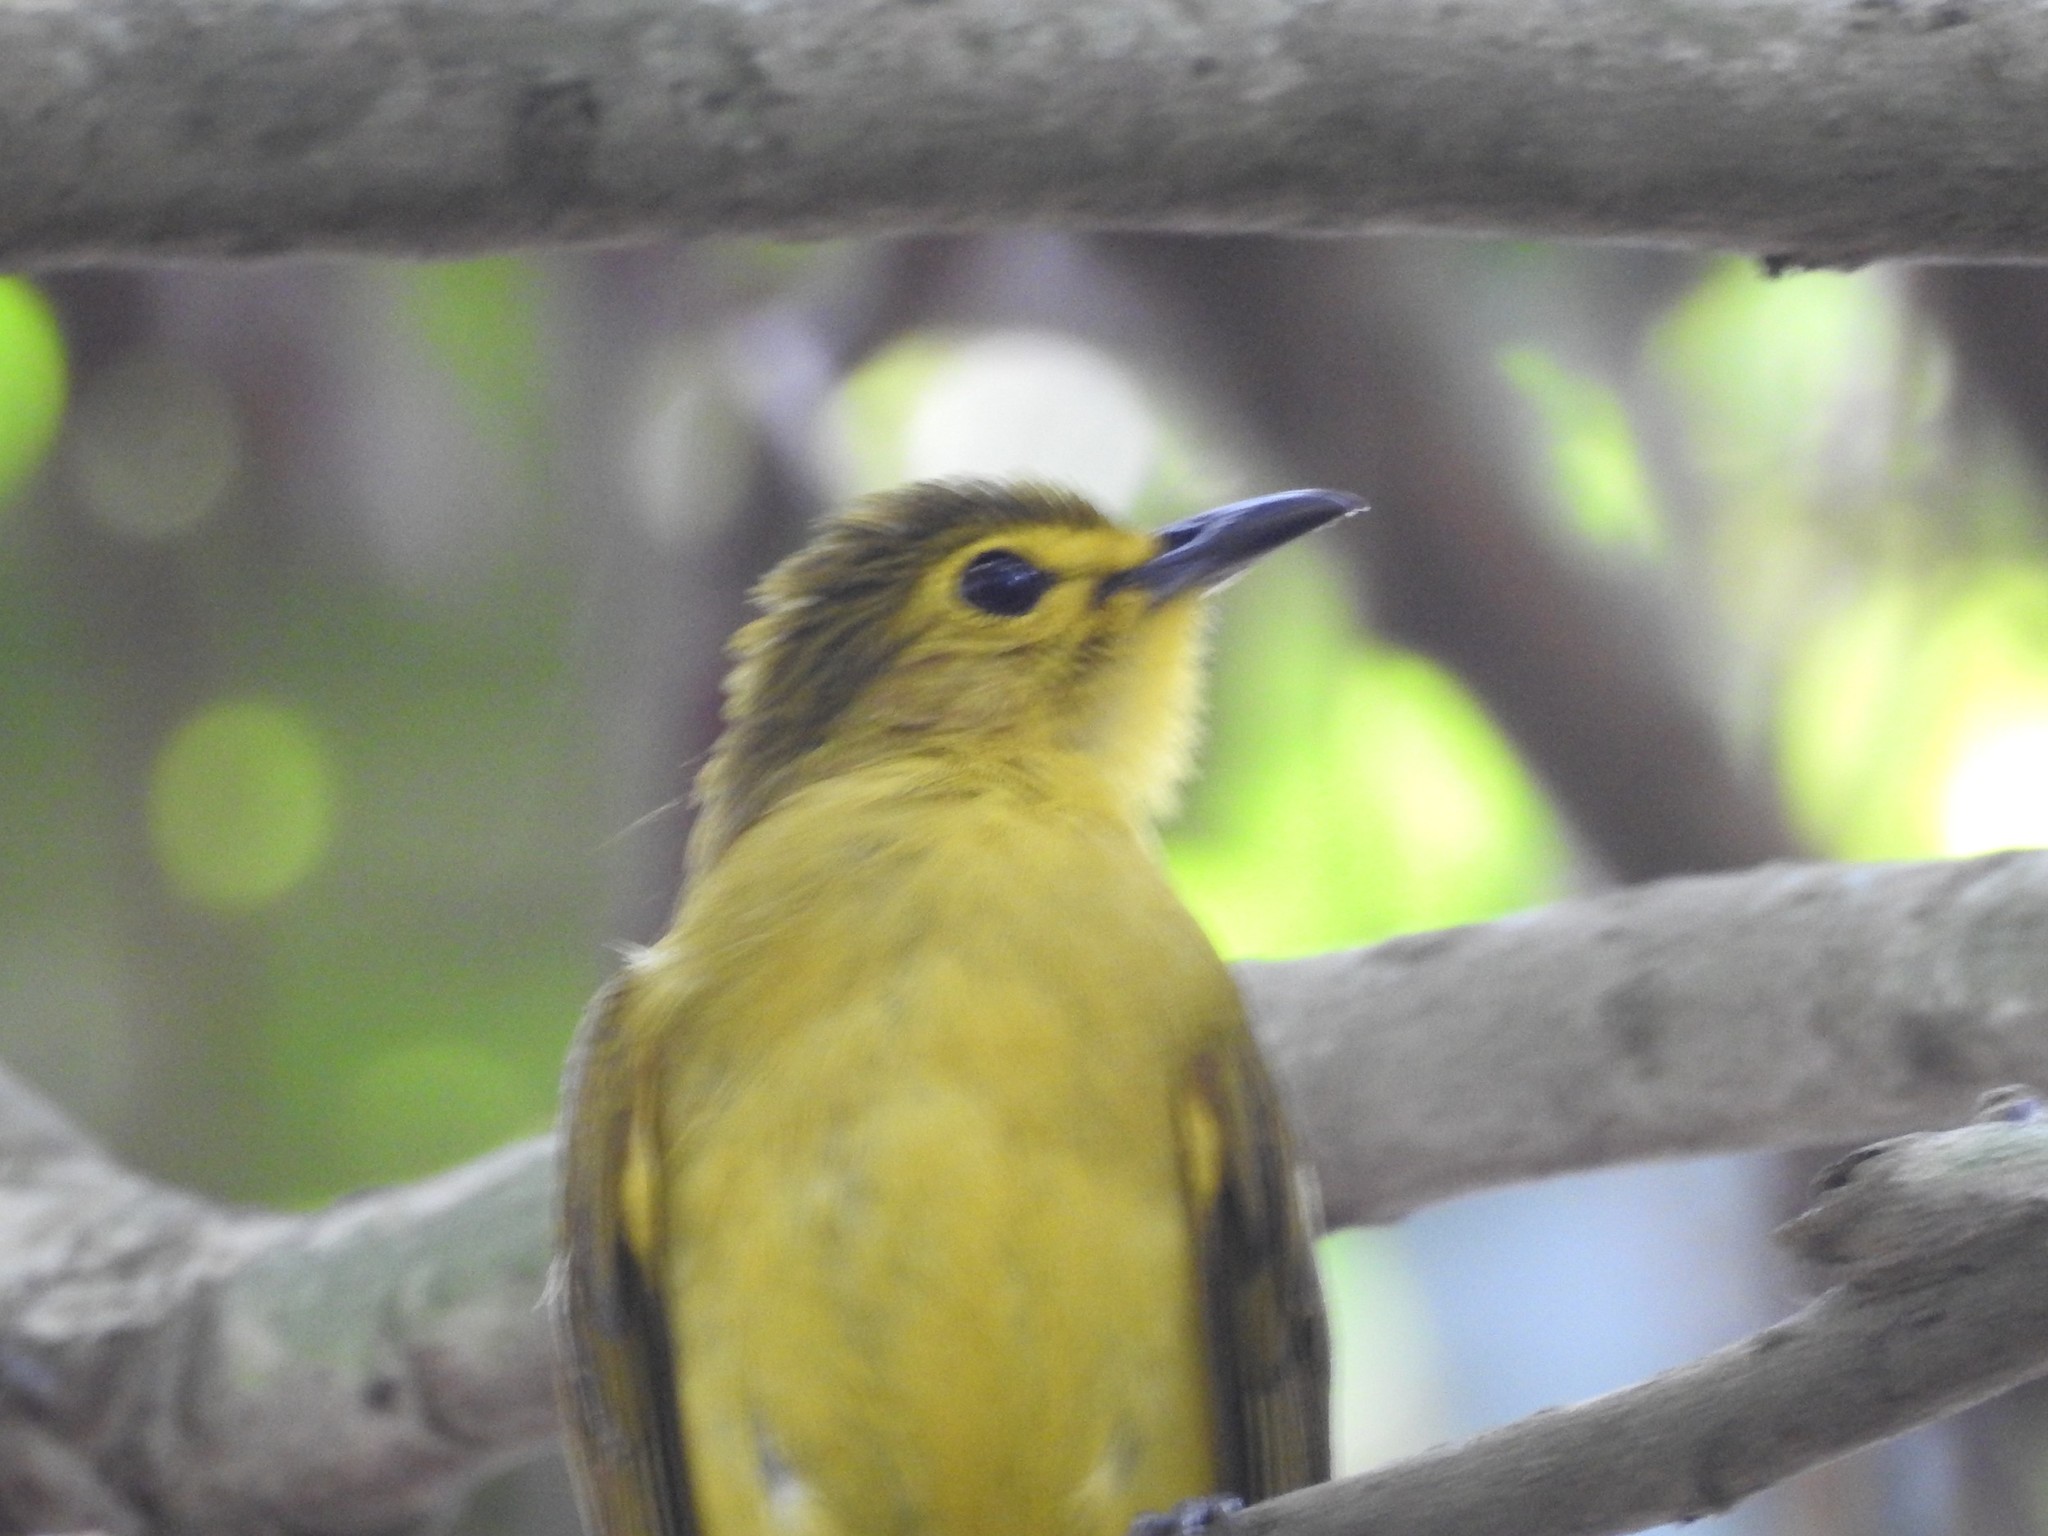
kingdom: Animalia
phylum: Chordata
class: Aves
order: Passeriformes
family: Pycnonotidae
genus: Acritillas
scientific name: Acritillas indica
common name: Yellow-browed bulbul
